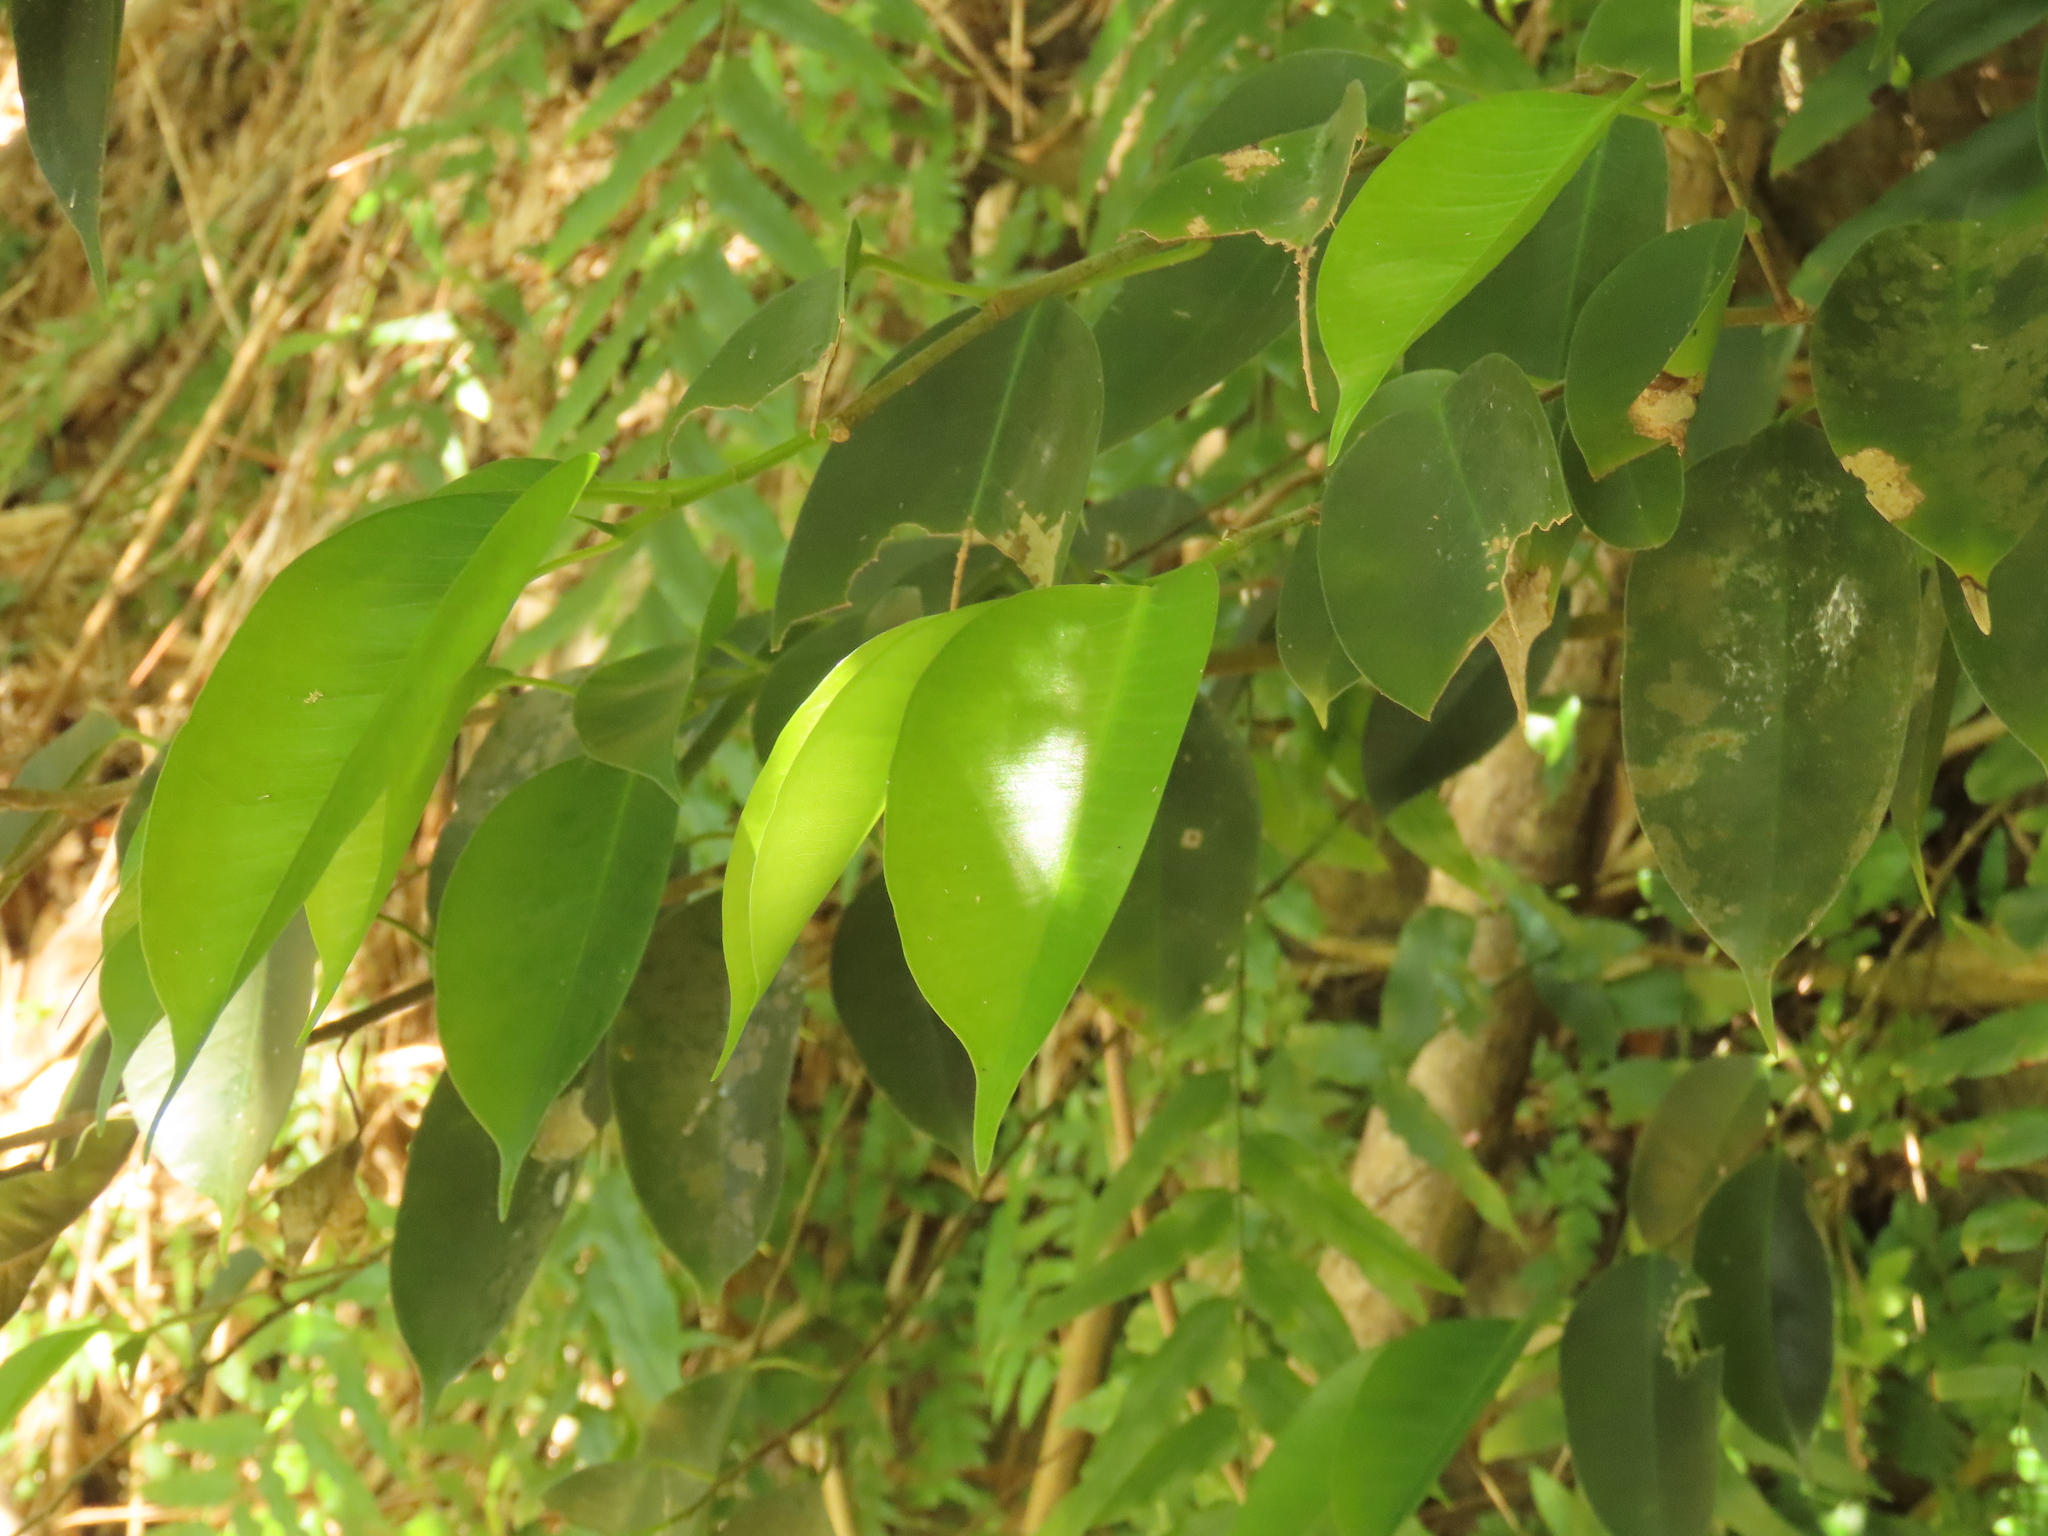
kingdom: Plantae
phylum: Tracheophyta
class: Magnoliopsida
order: Rosales
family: Moraceae
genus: Ficus
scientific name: Ficus benjamina
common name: Weeping fig
